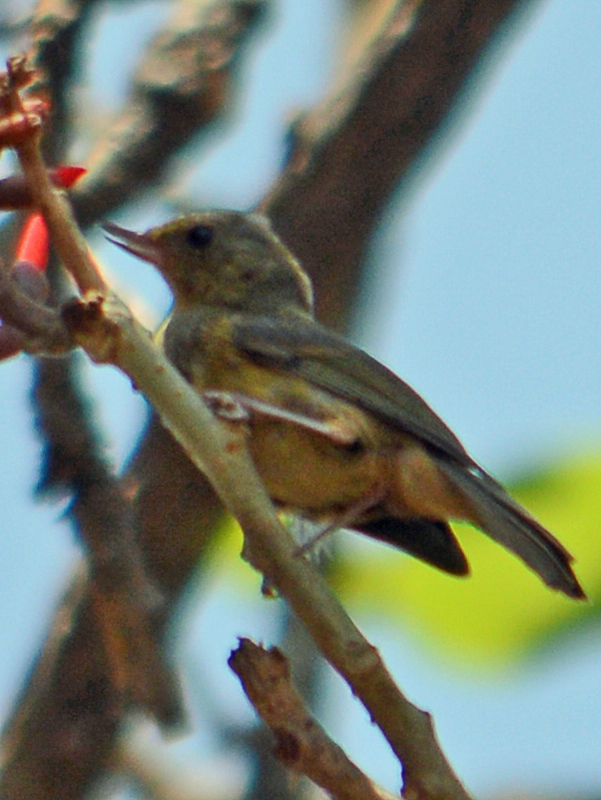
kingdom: Animalia
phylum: Chordata
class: Aves
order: Passeriformes
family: Thraupidae
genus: Diglossa
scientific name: Diglossa baritula
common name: Cinnamon-bellied flowerpiercer
